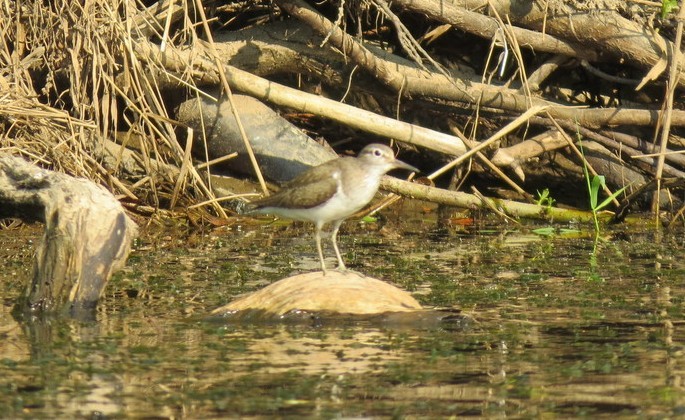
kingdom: Animalia
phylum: Chordata
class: Aves
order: Charadriiformes
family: Scolopacidae
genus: Actitis
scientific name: Actitis hypoleucos
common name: Common sandpiper
